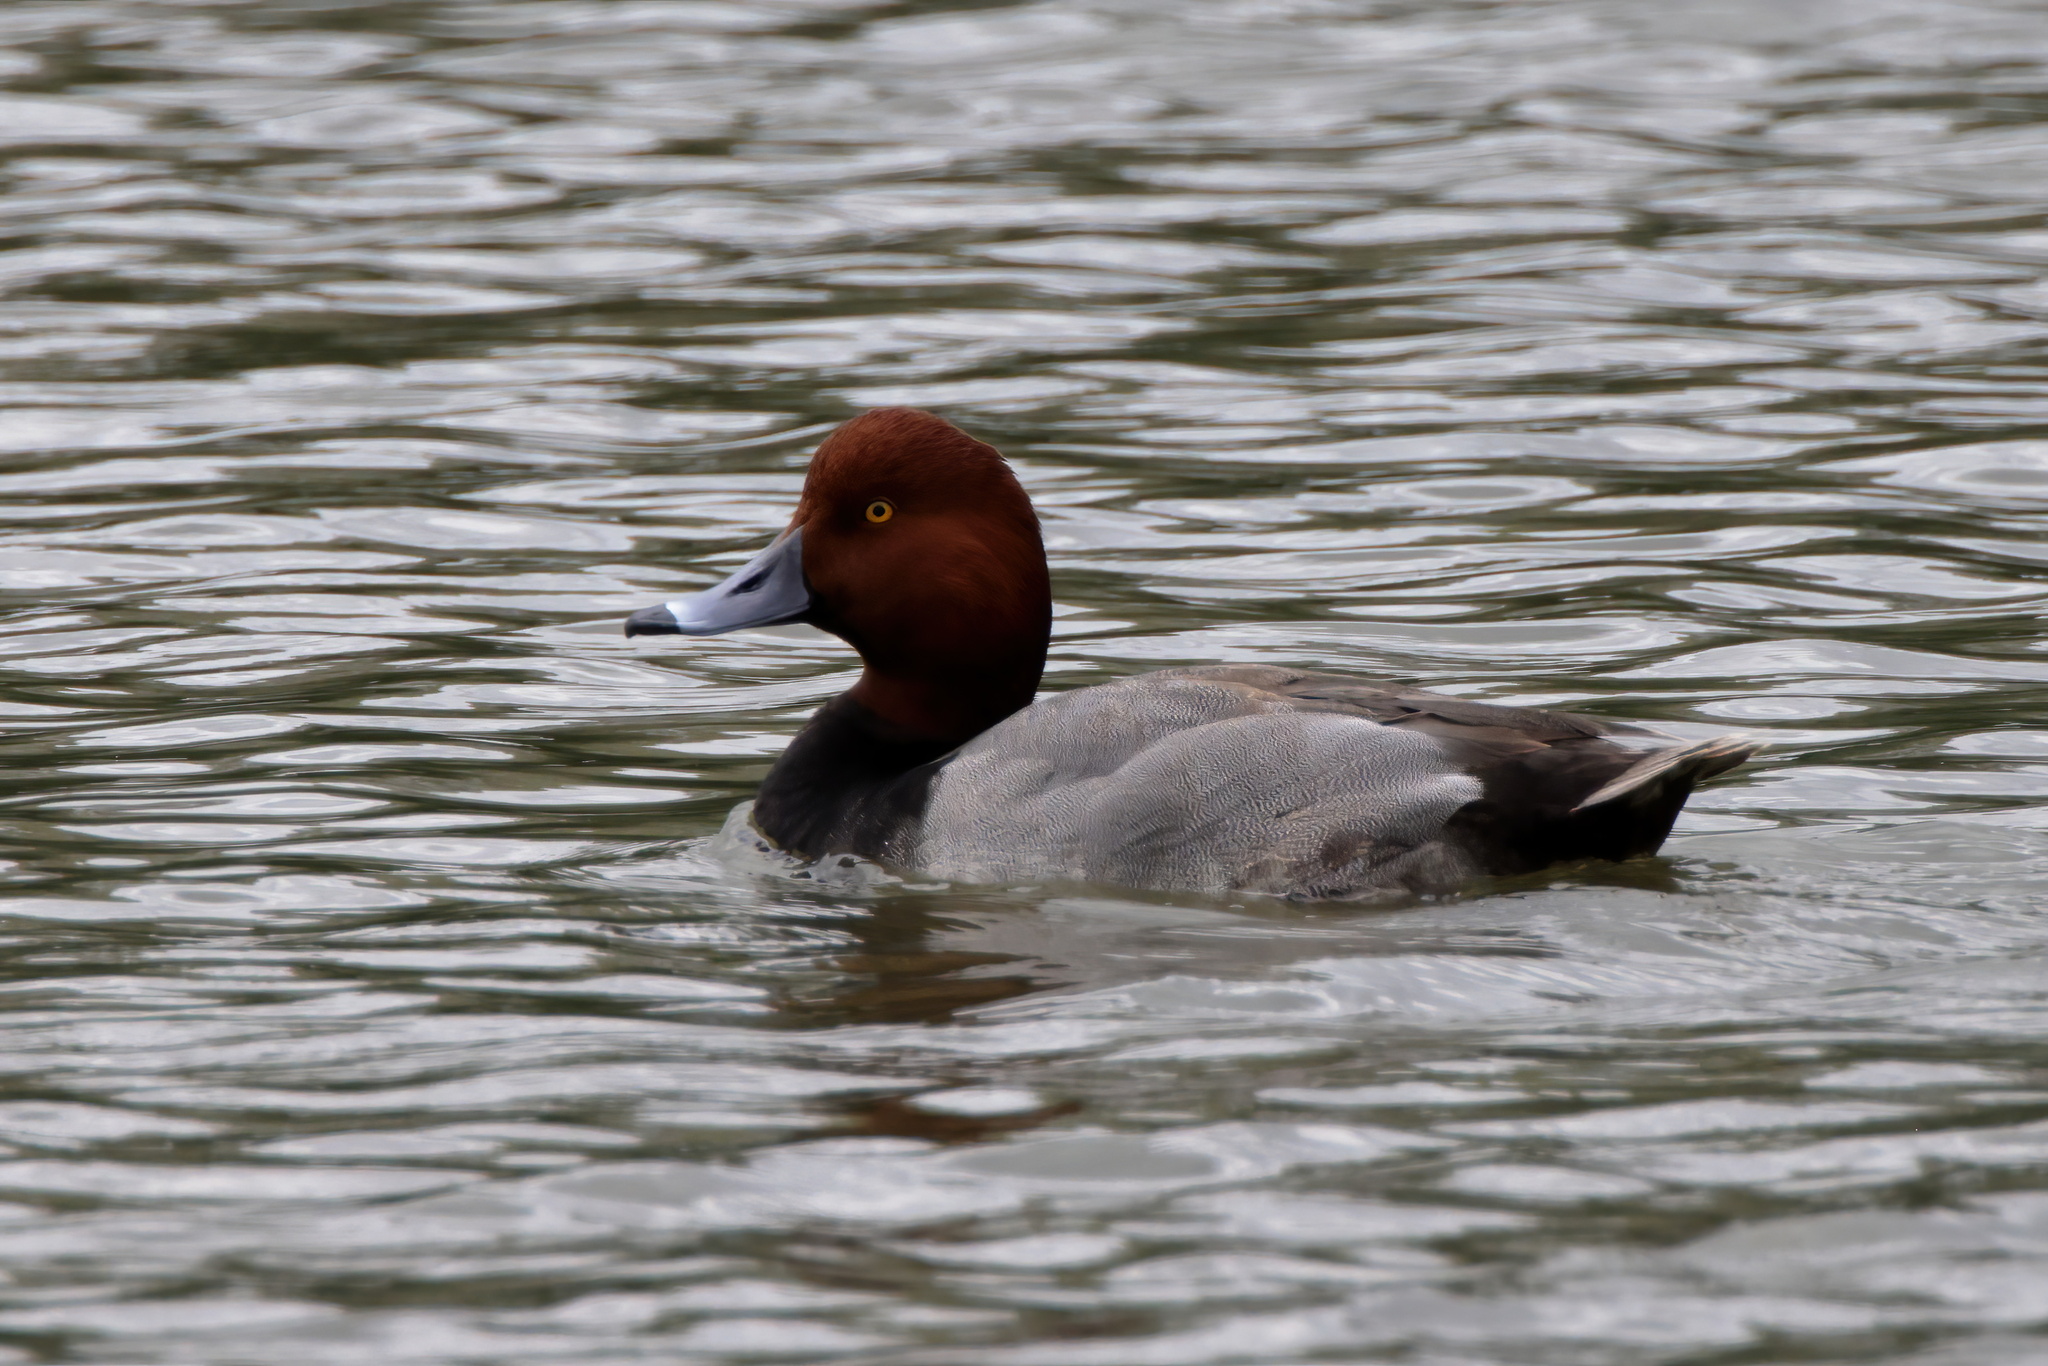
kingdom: Animalia
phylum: Chordata
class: Aves
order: Anseriformes
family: Anatidae
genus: Aythya
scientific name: Aythya americana
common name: Redhead
